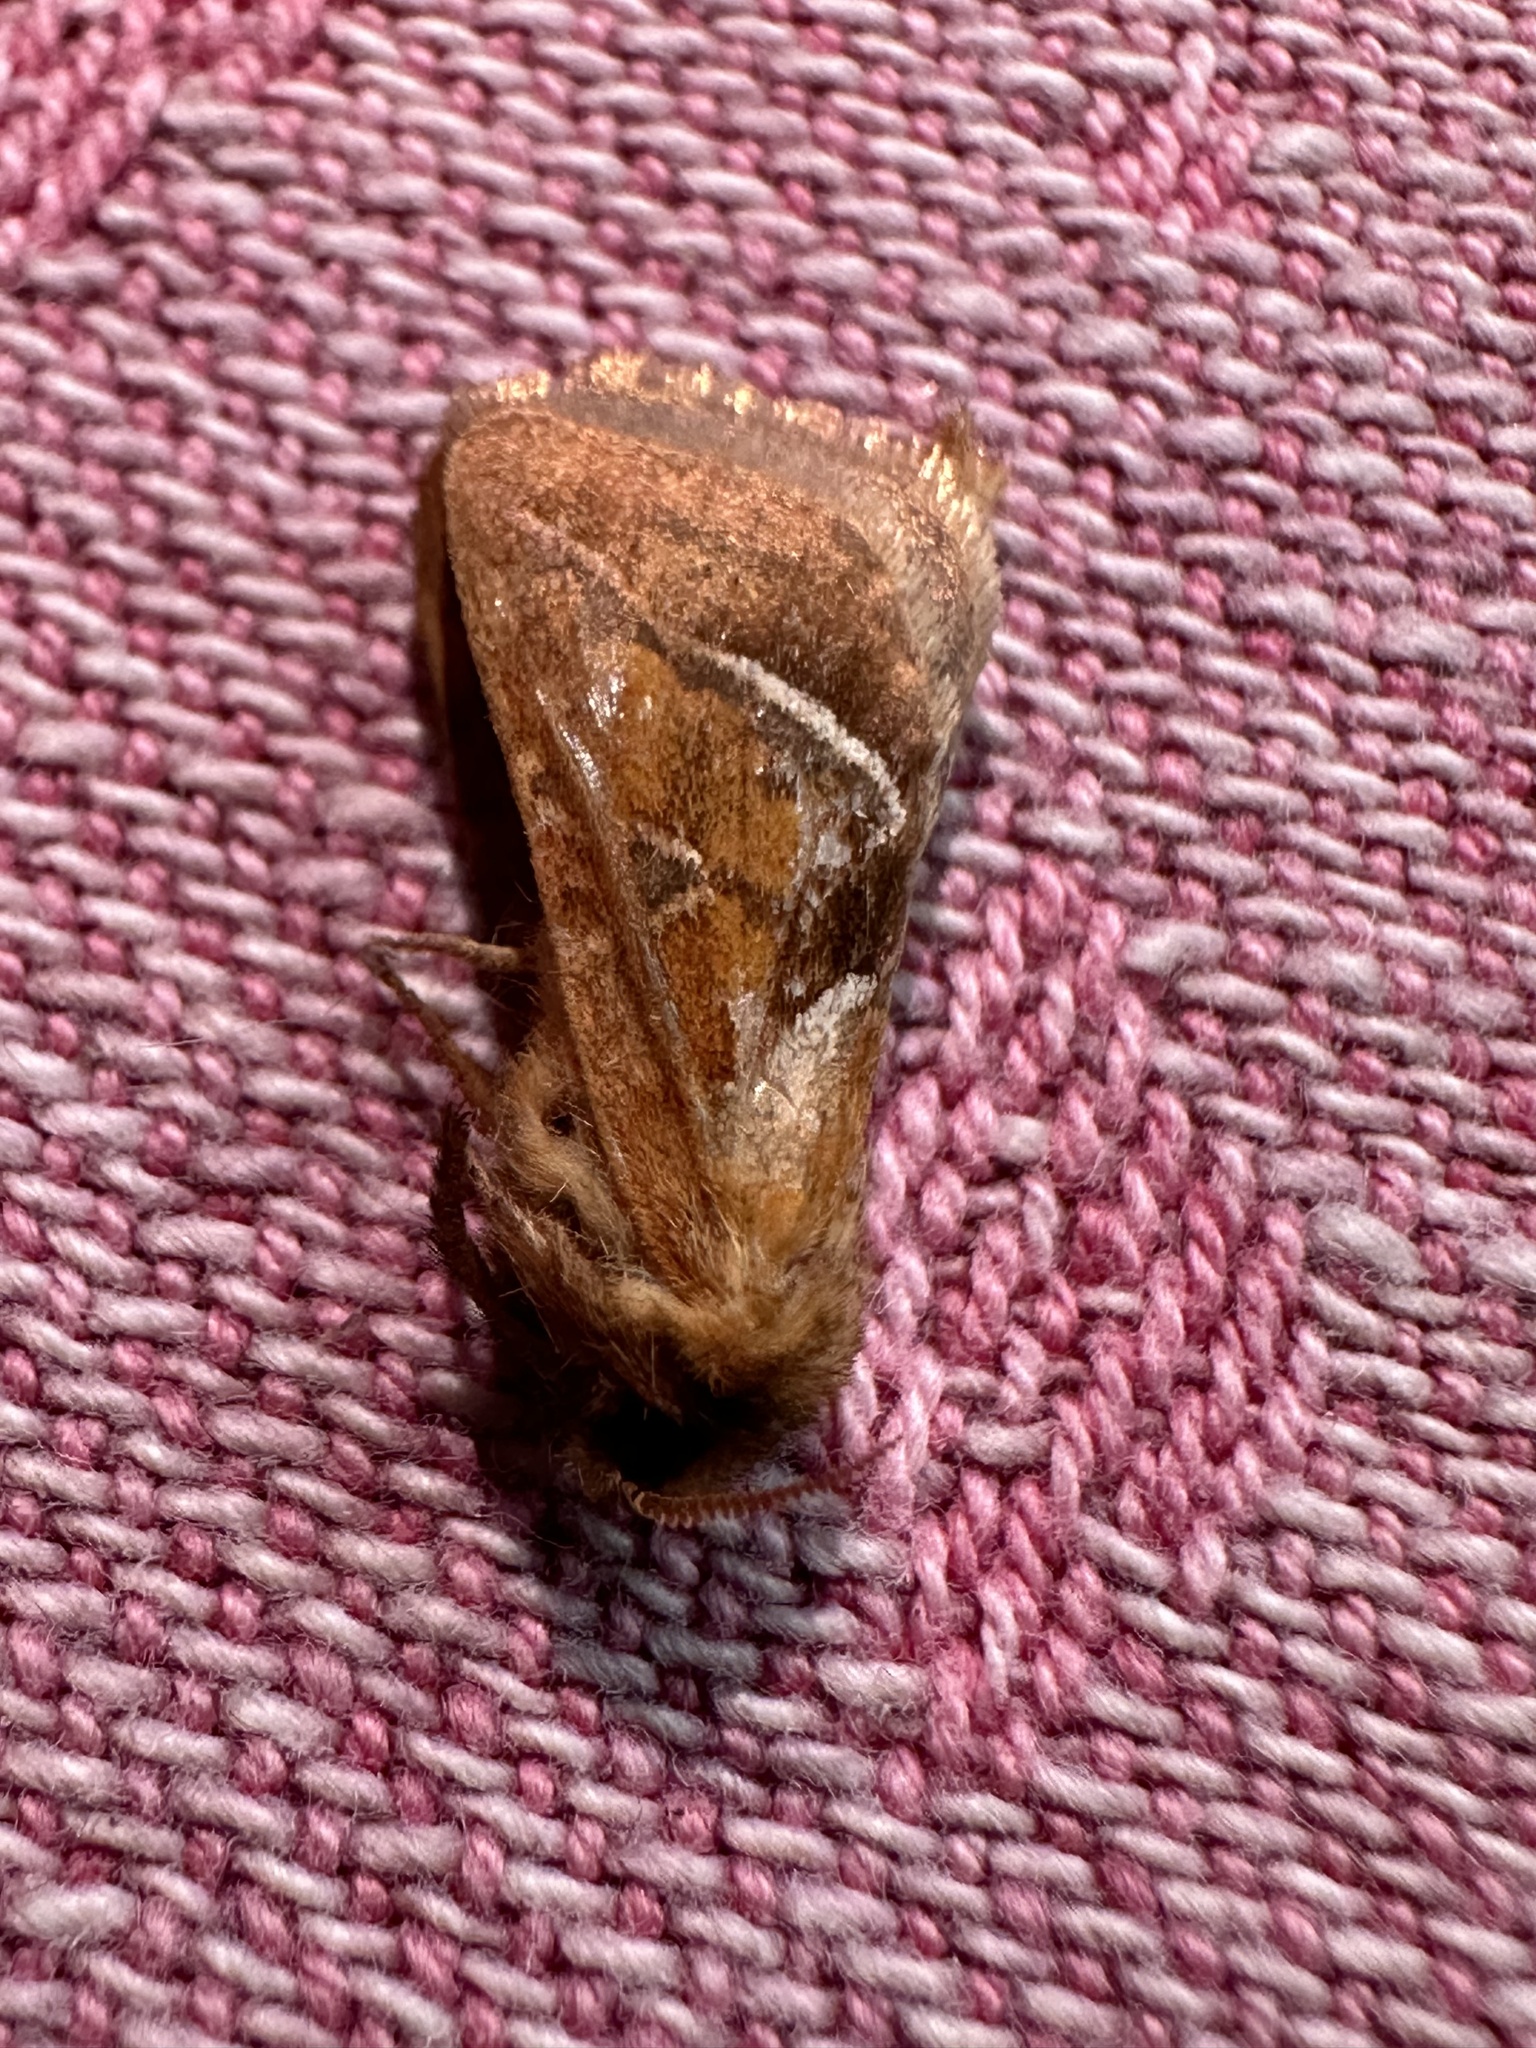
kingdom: Animalia
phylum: Arthropoda
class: Insecta
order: Lepidoptera
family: Hepialidae
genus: Triodia
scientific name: Triodia sylvina
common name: Orange swift
